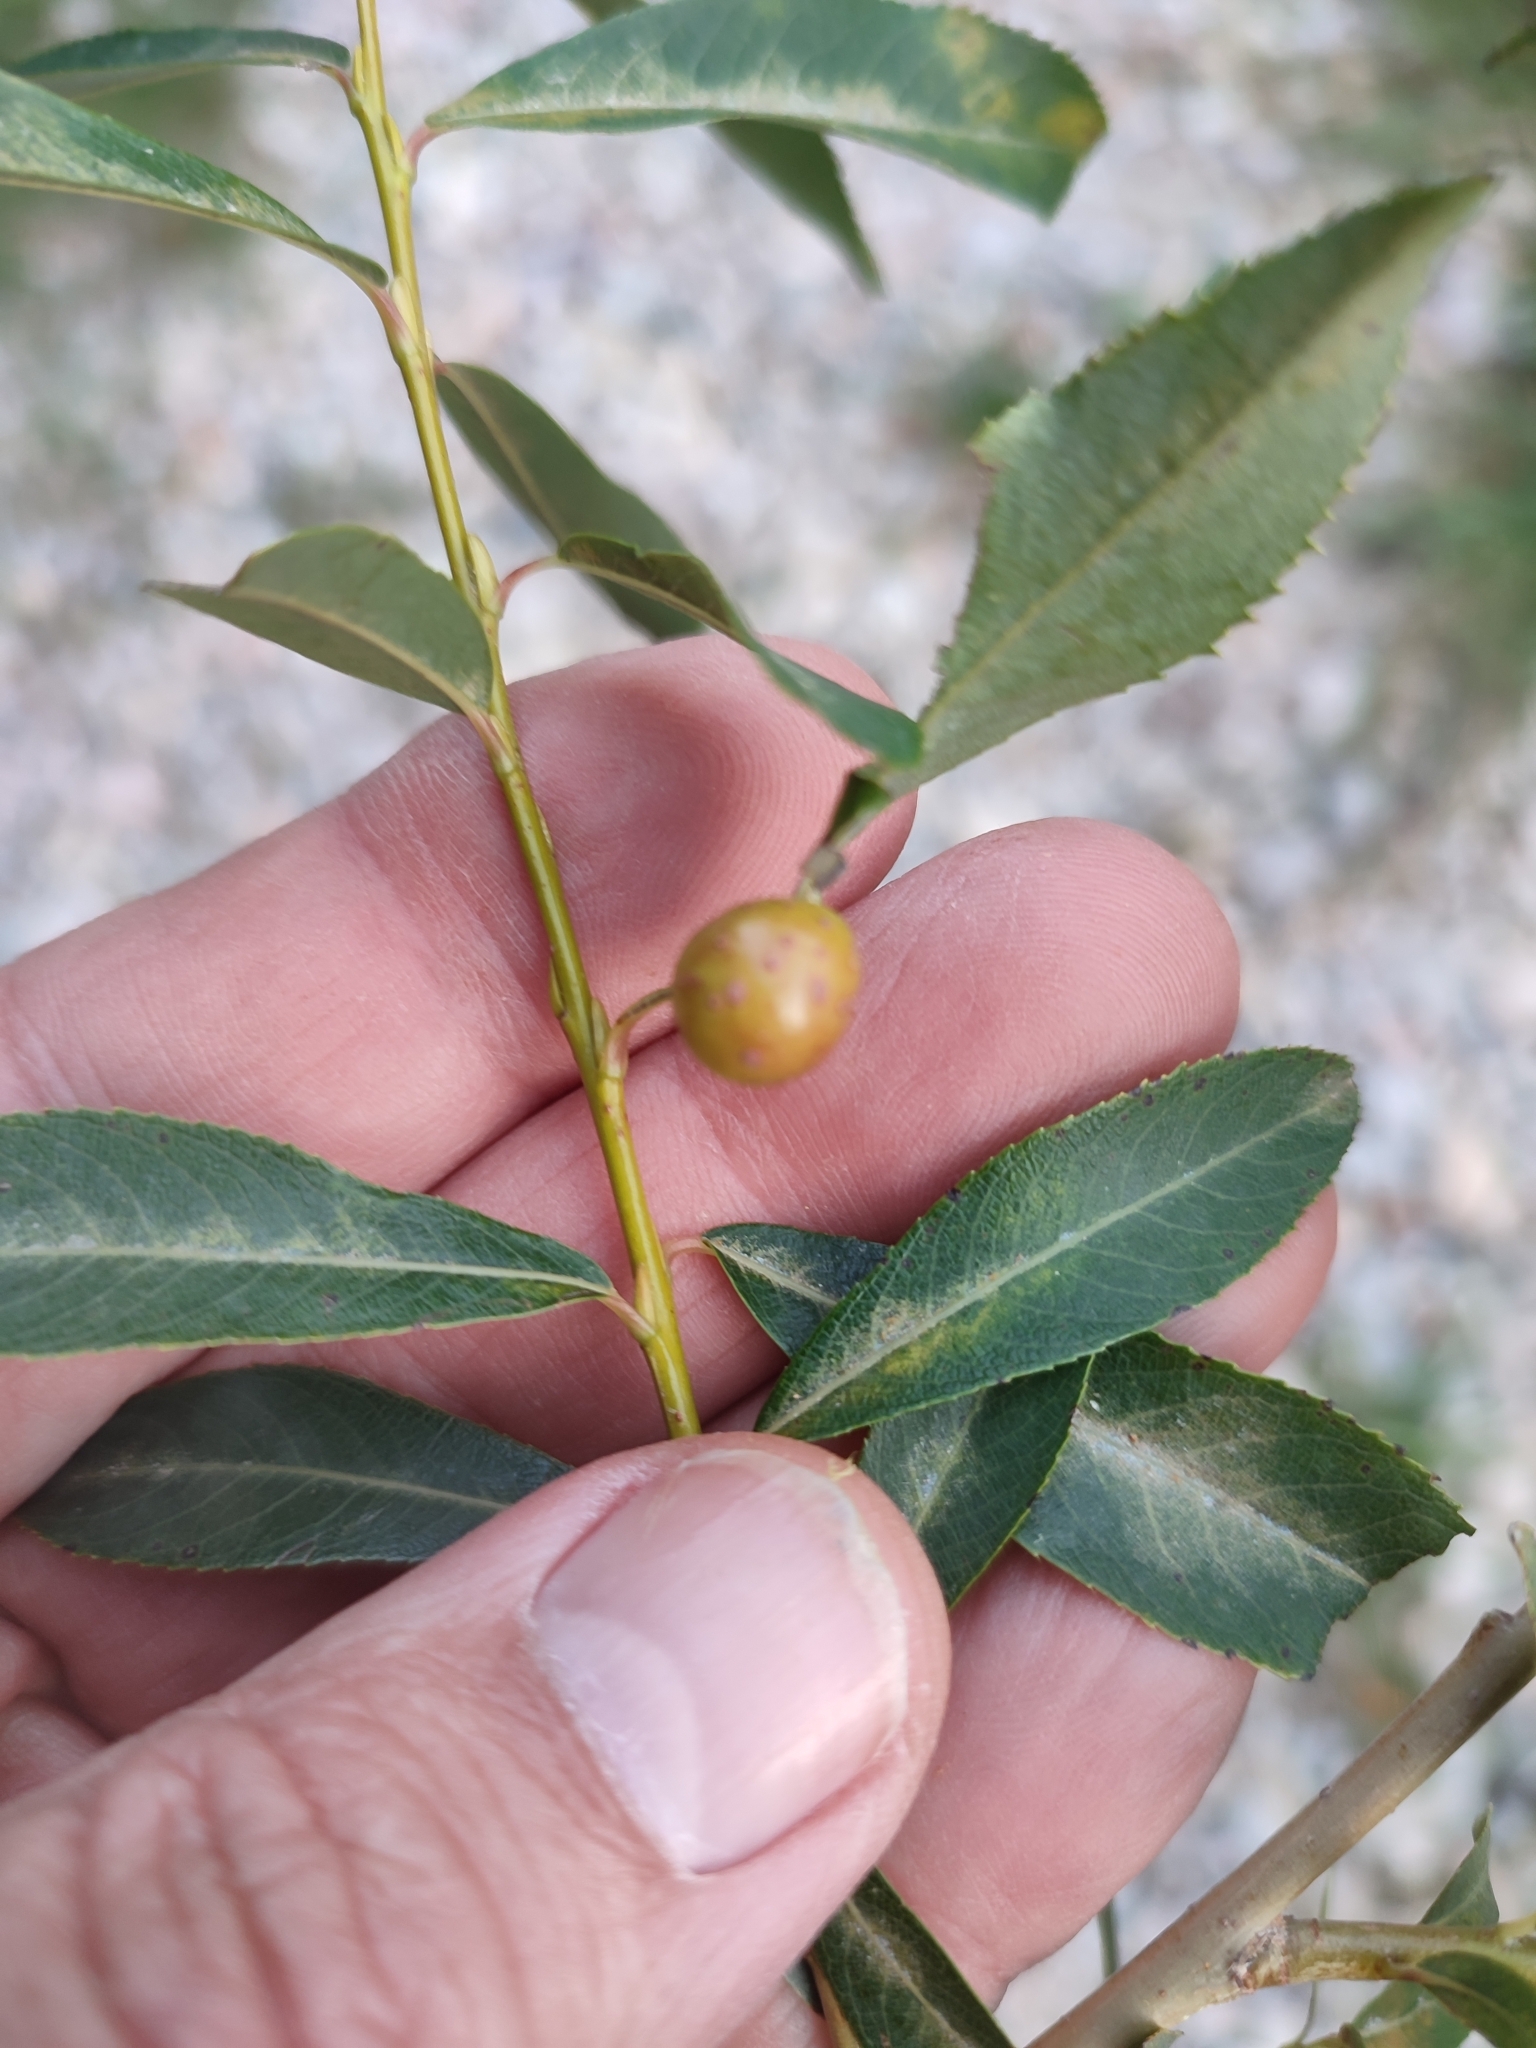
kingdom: Animalia
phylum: Arthropoda
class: Insecta
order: Hymenoptera
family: Tenthredinidae
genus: Euura
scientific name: Euura viminalis
